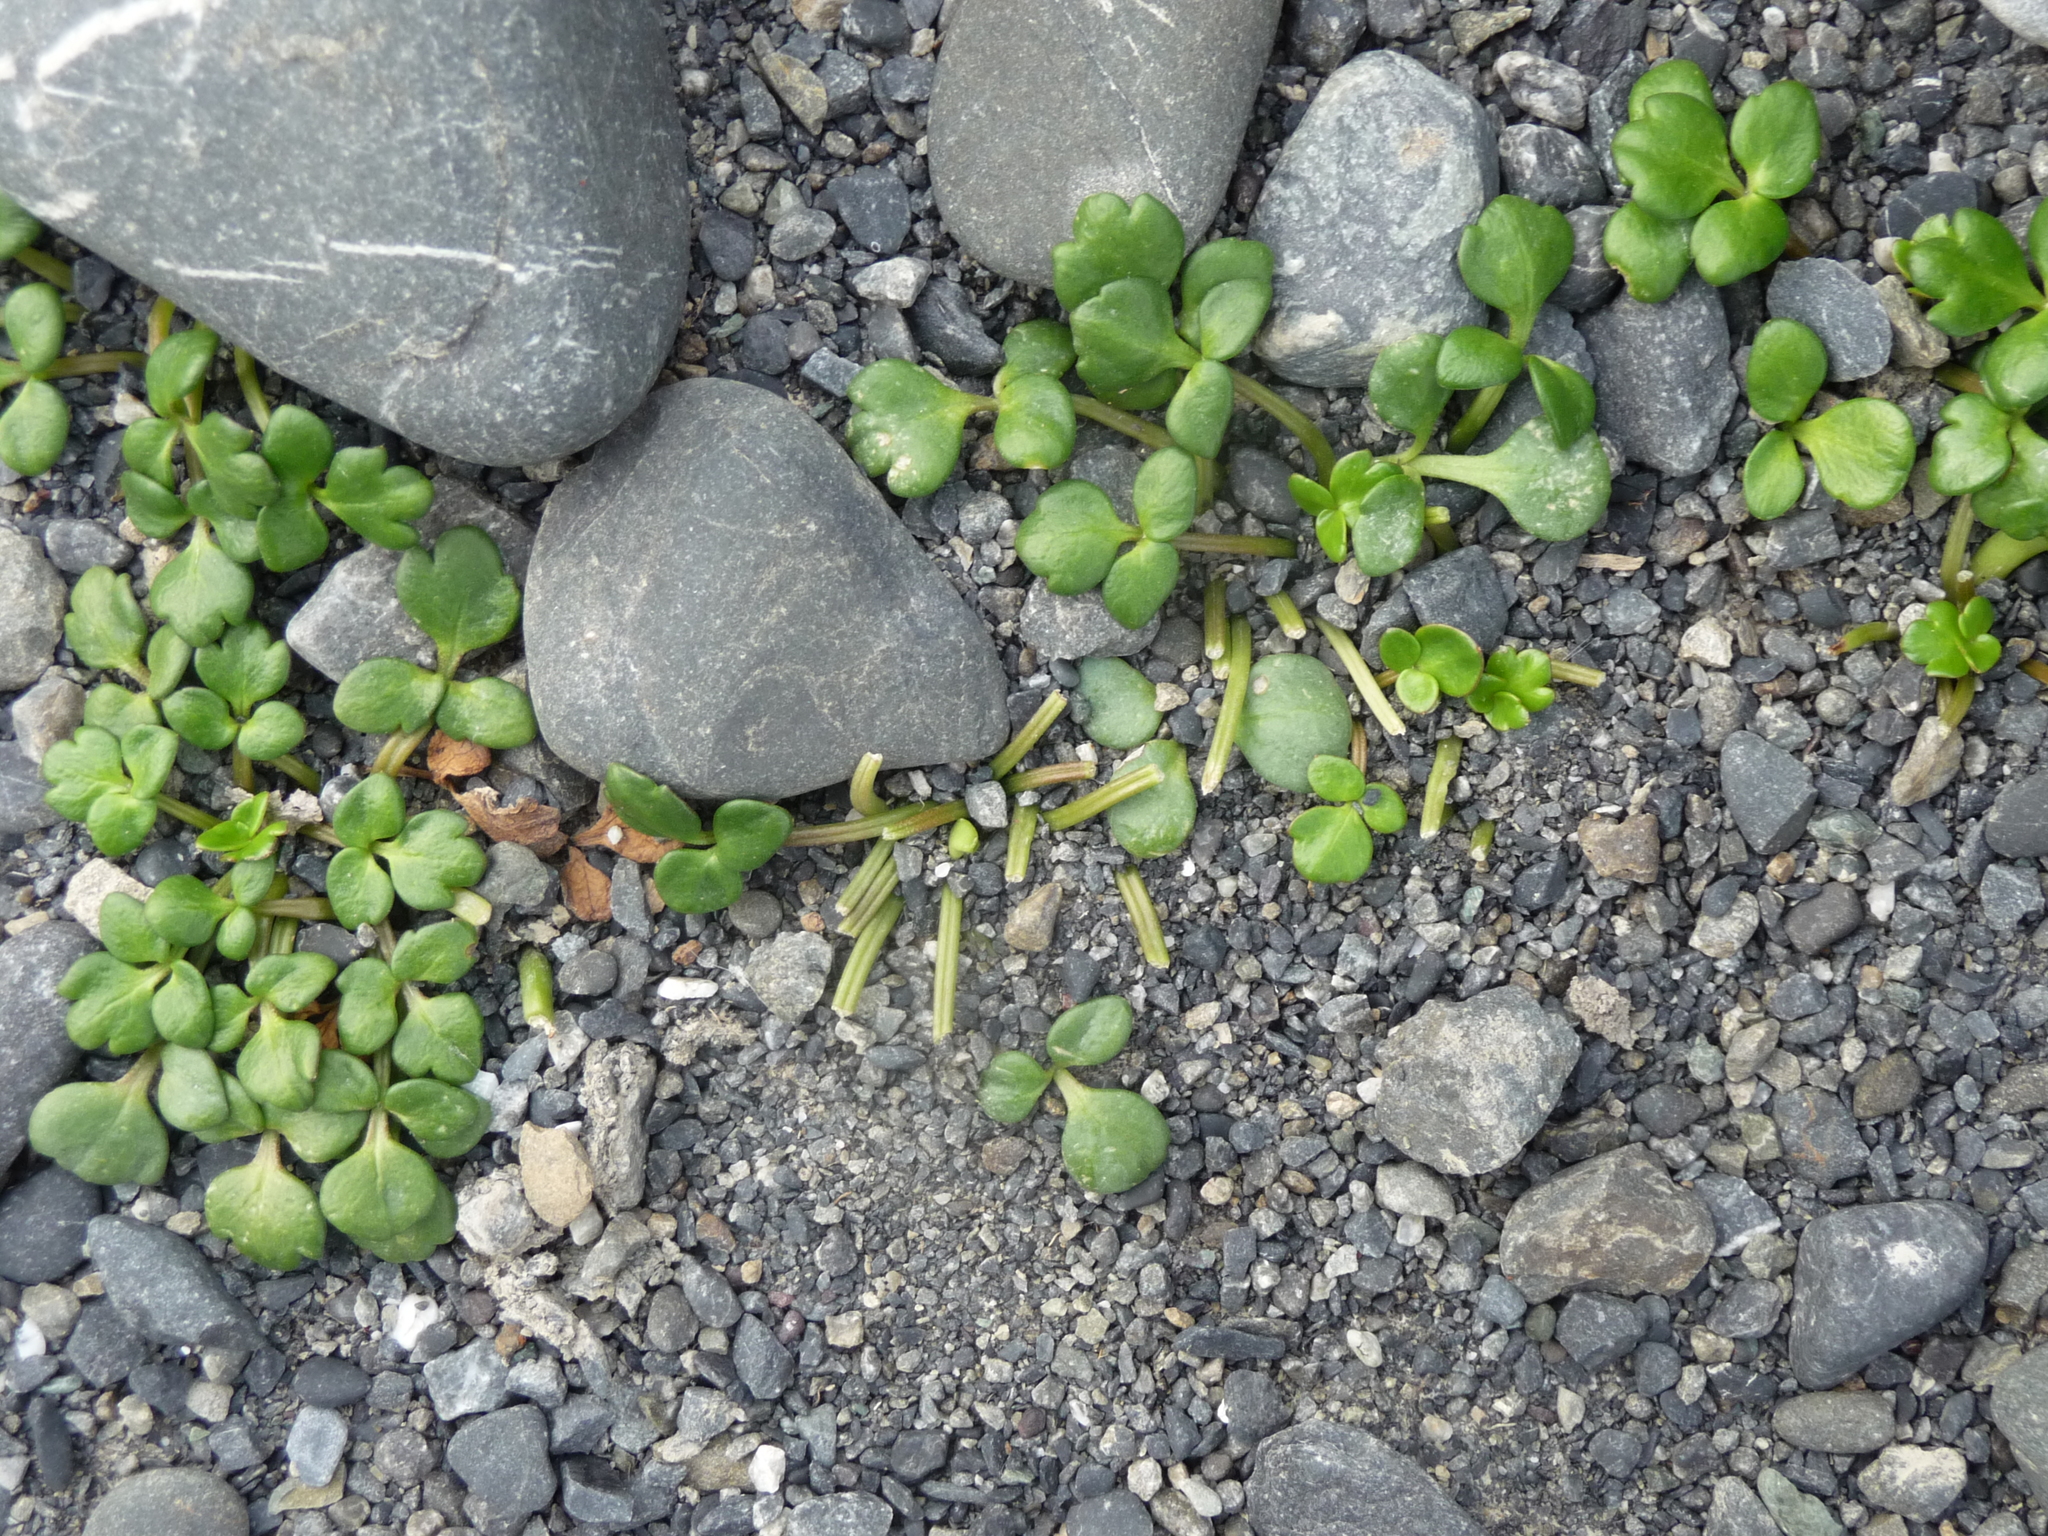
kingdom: Plantae
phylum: Tracheophyta
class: Magnoliopsida
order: Ranunculales
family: Ranunculaceae
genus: Ranunculus
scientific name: Ranunculus acaulis
